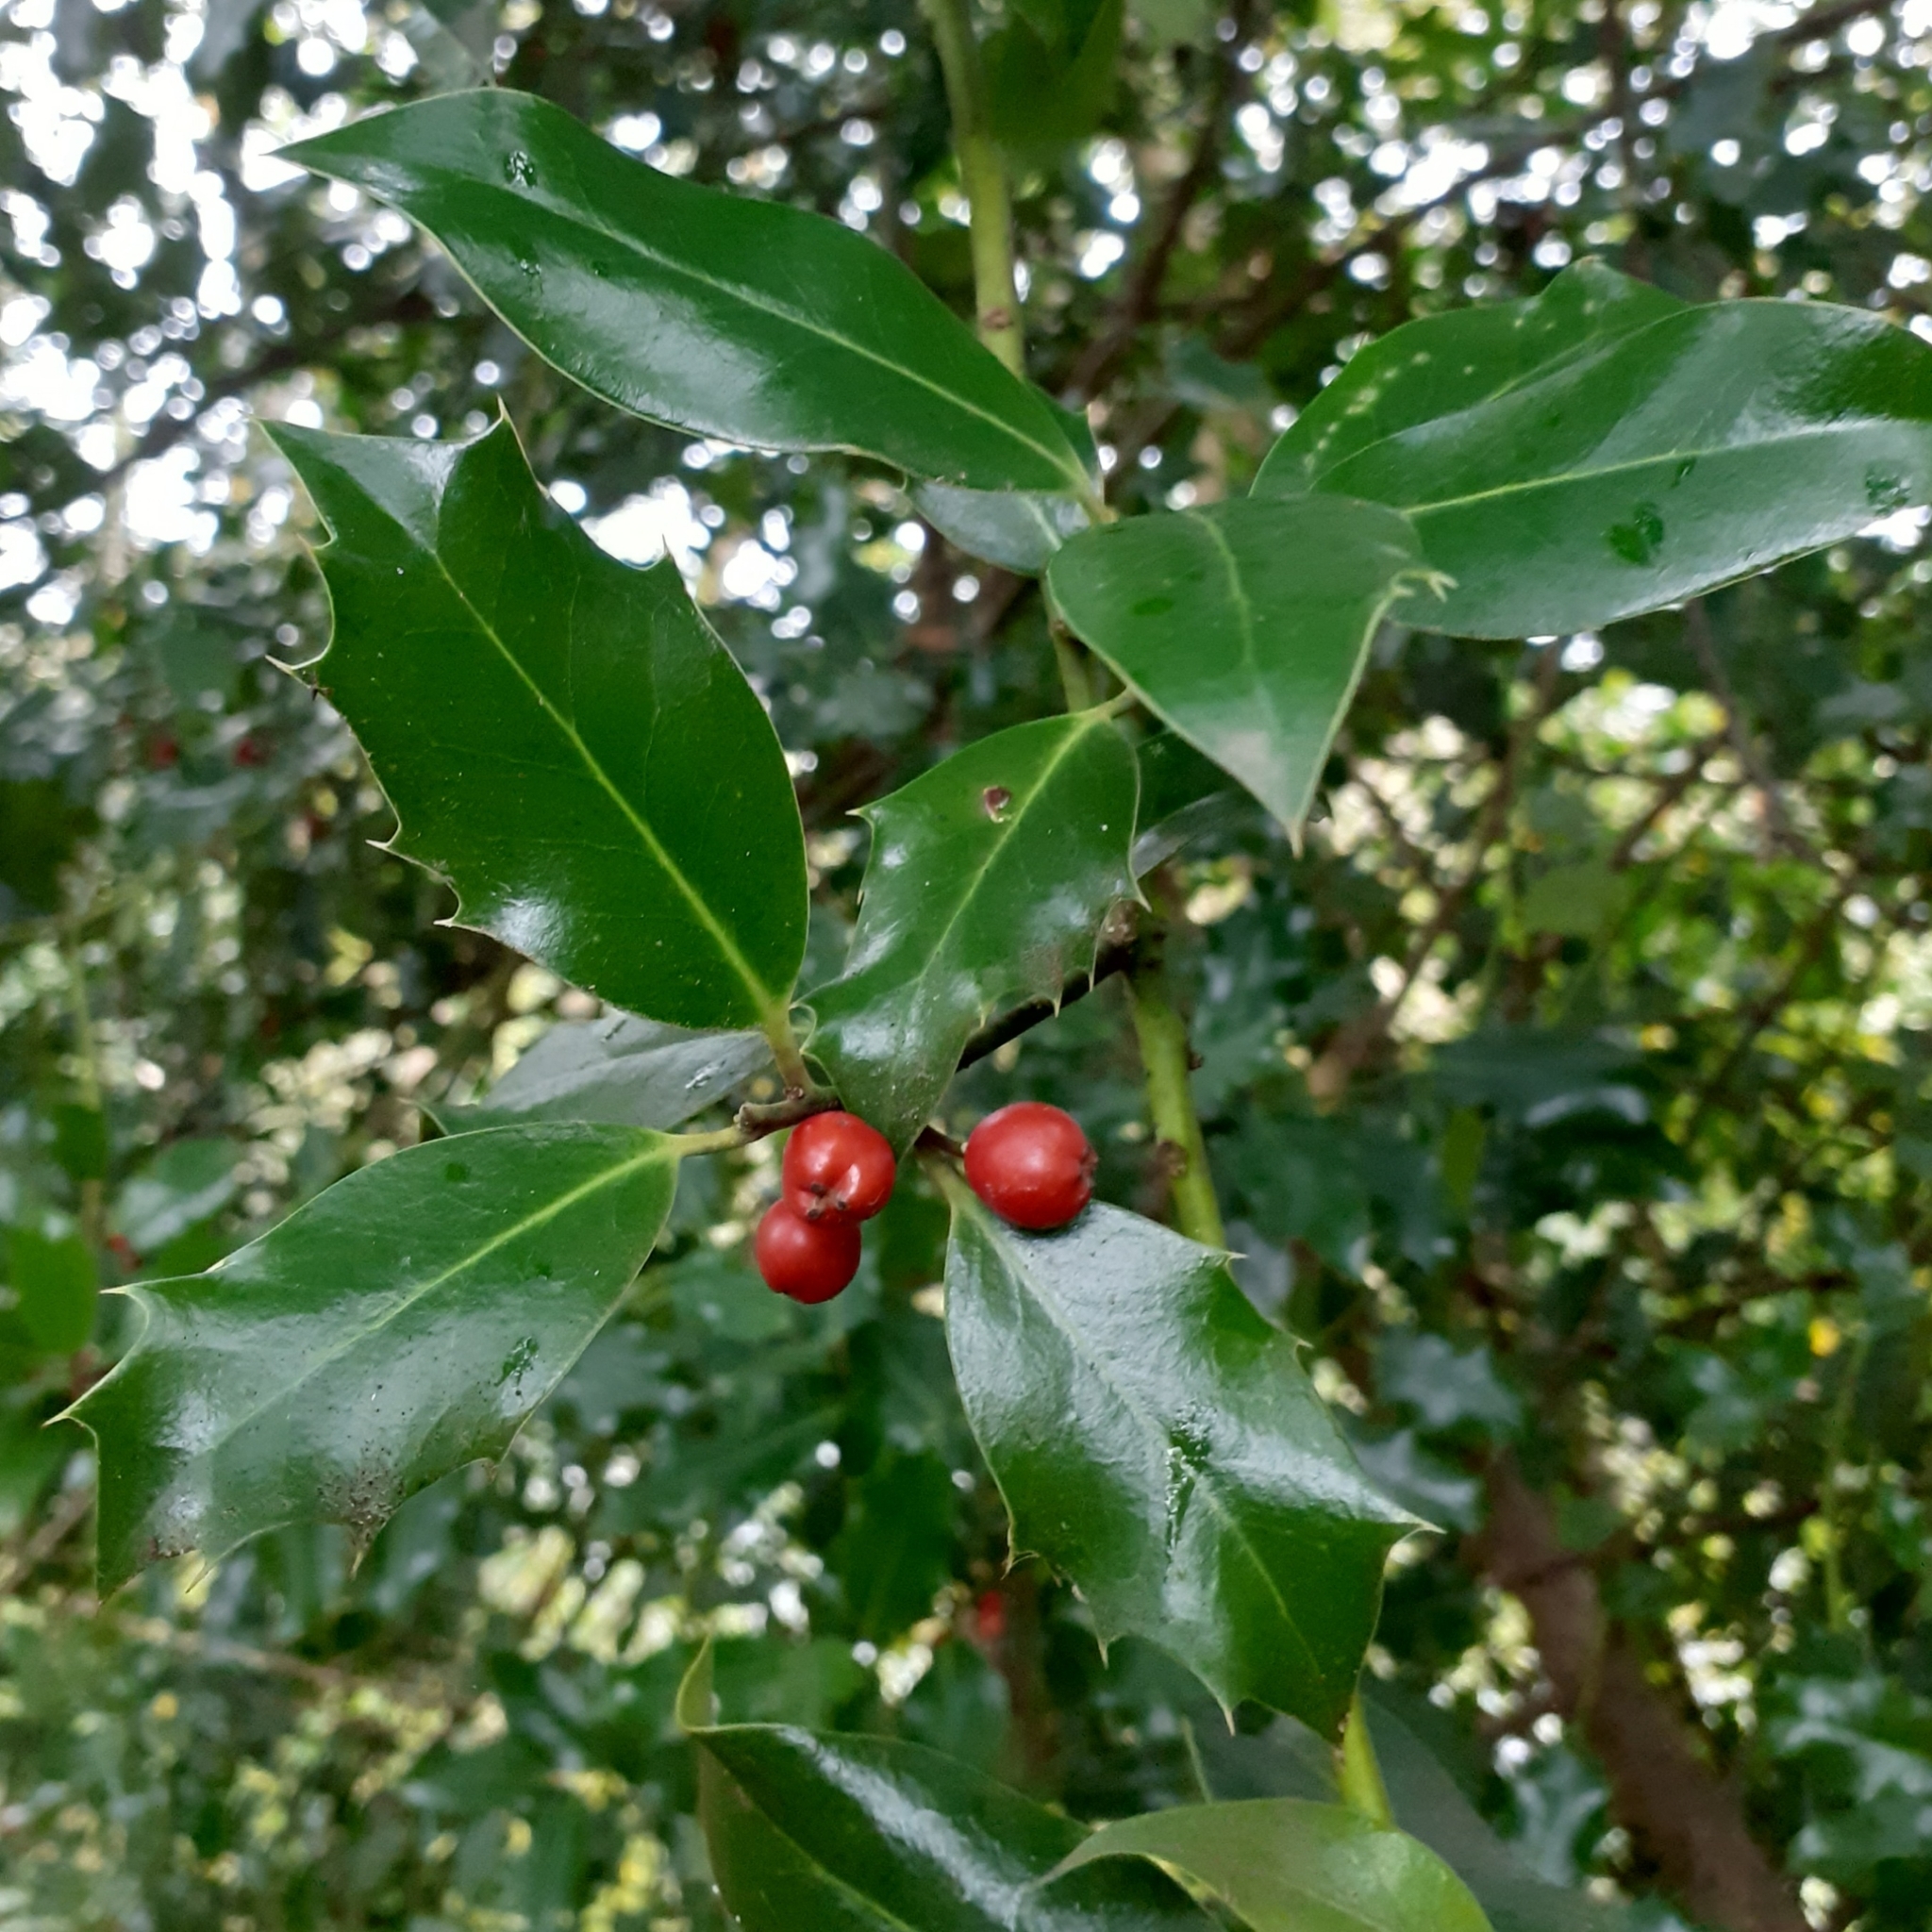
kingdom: Plantae
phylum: Tracheophyta
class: Magnoliopsida
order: Aquifoliales
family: Aquifoliaceae
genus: Ilex
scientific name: Ilex aquifolium
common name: English holly
